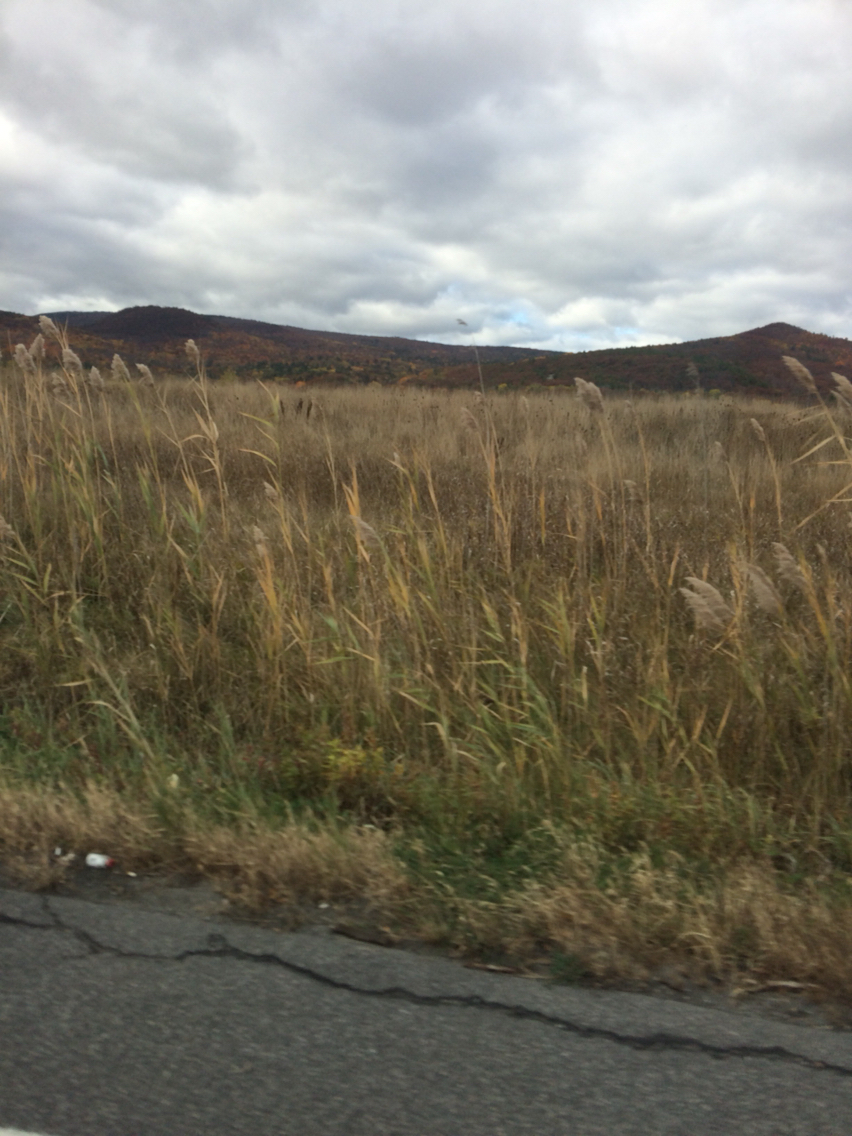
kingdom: Plantae
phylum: Tracheophyta
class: Liliopsida
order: Poales
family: Poaceae
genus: Phragmites
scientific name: Phragmites australis
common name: Common reed
